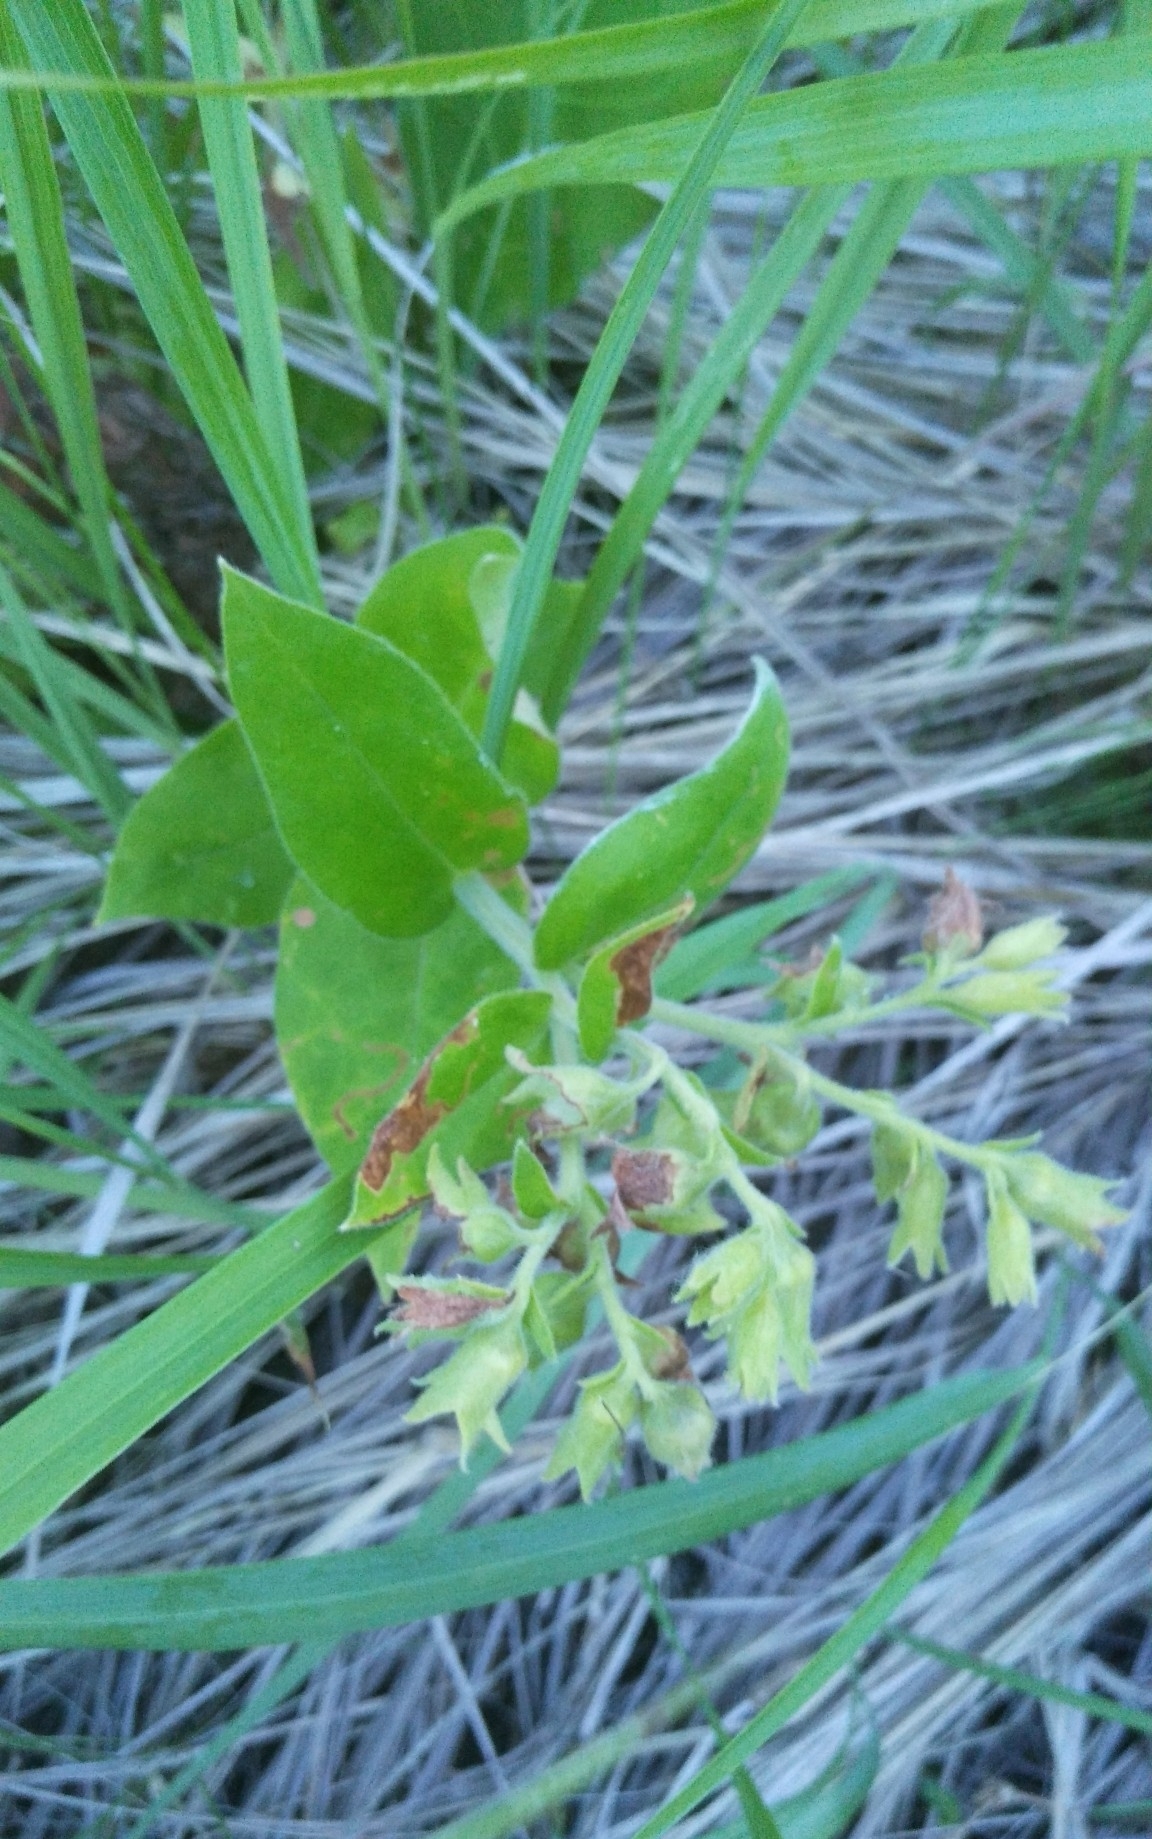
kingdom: Plantae
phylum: Tracheophyta
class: Magnoliopsida
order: Boraginales
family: Boraginaceae
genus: Pulmonaria
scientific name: Pulmonaria mollis
